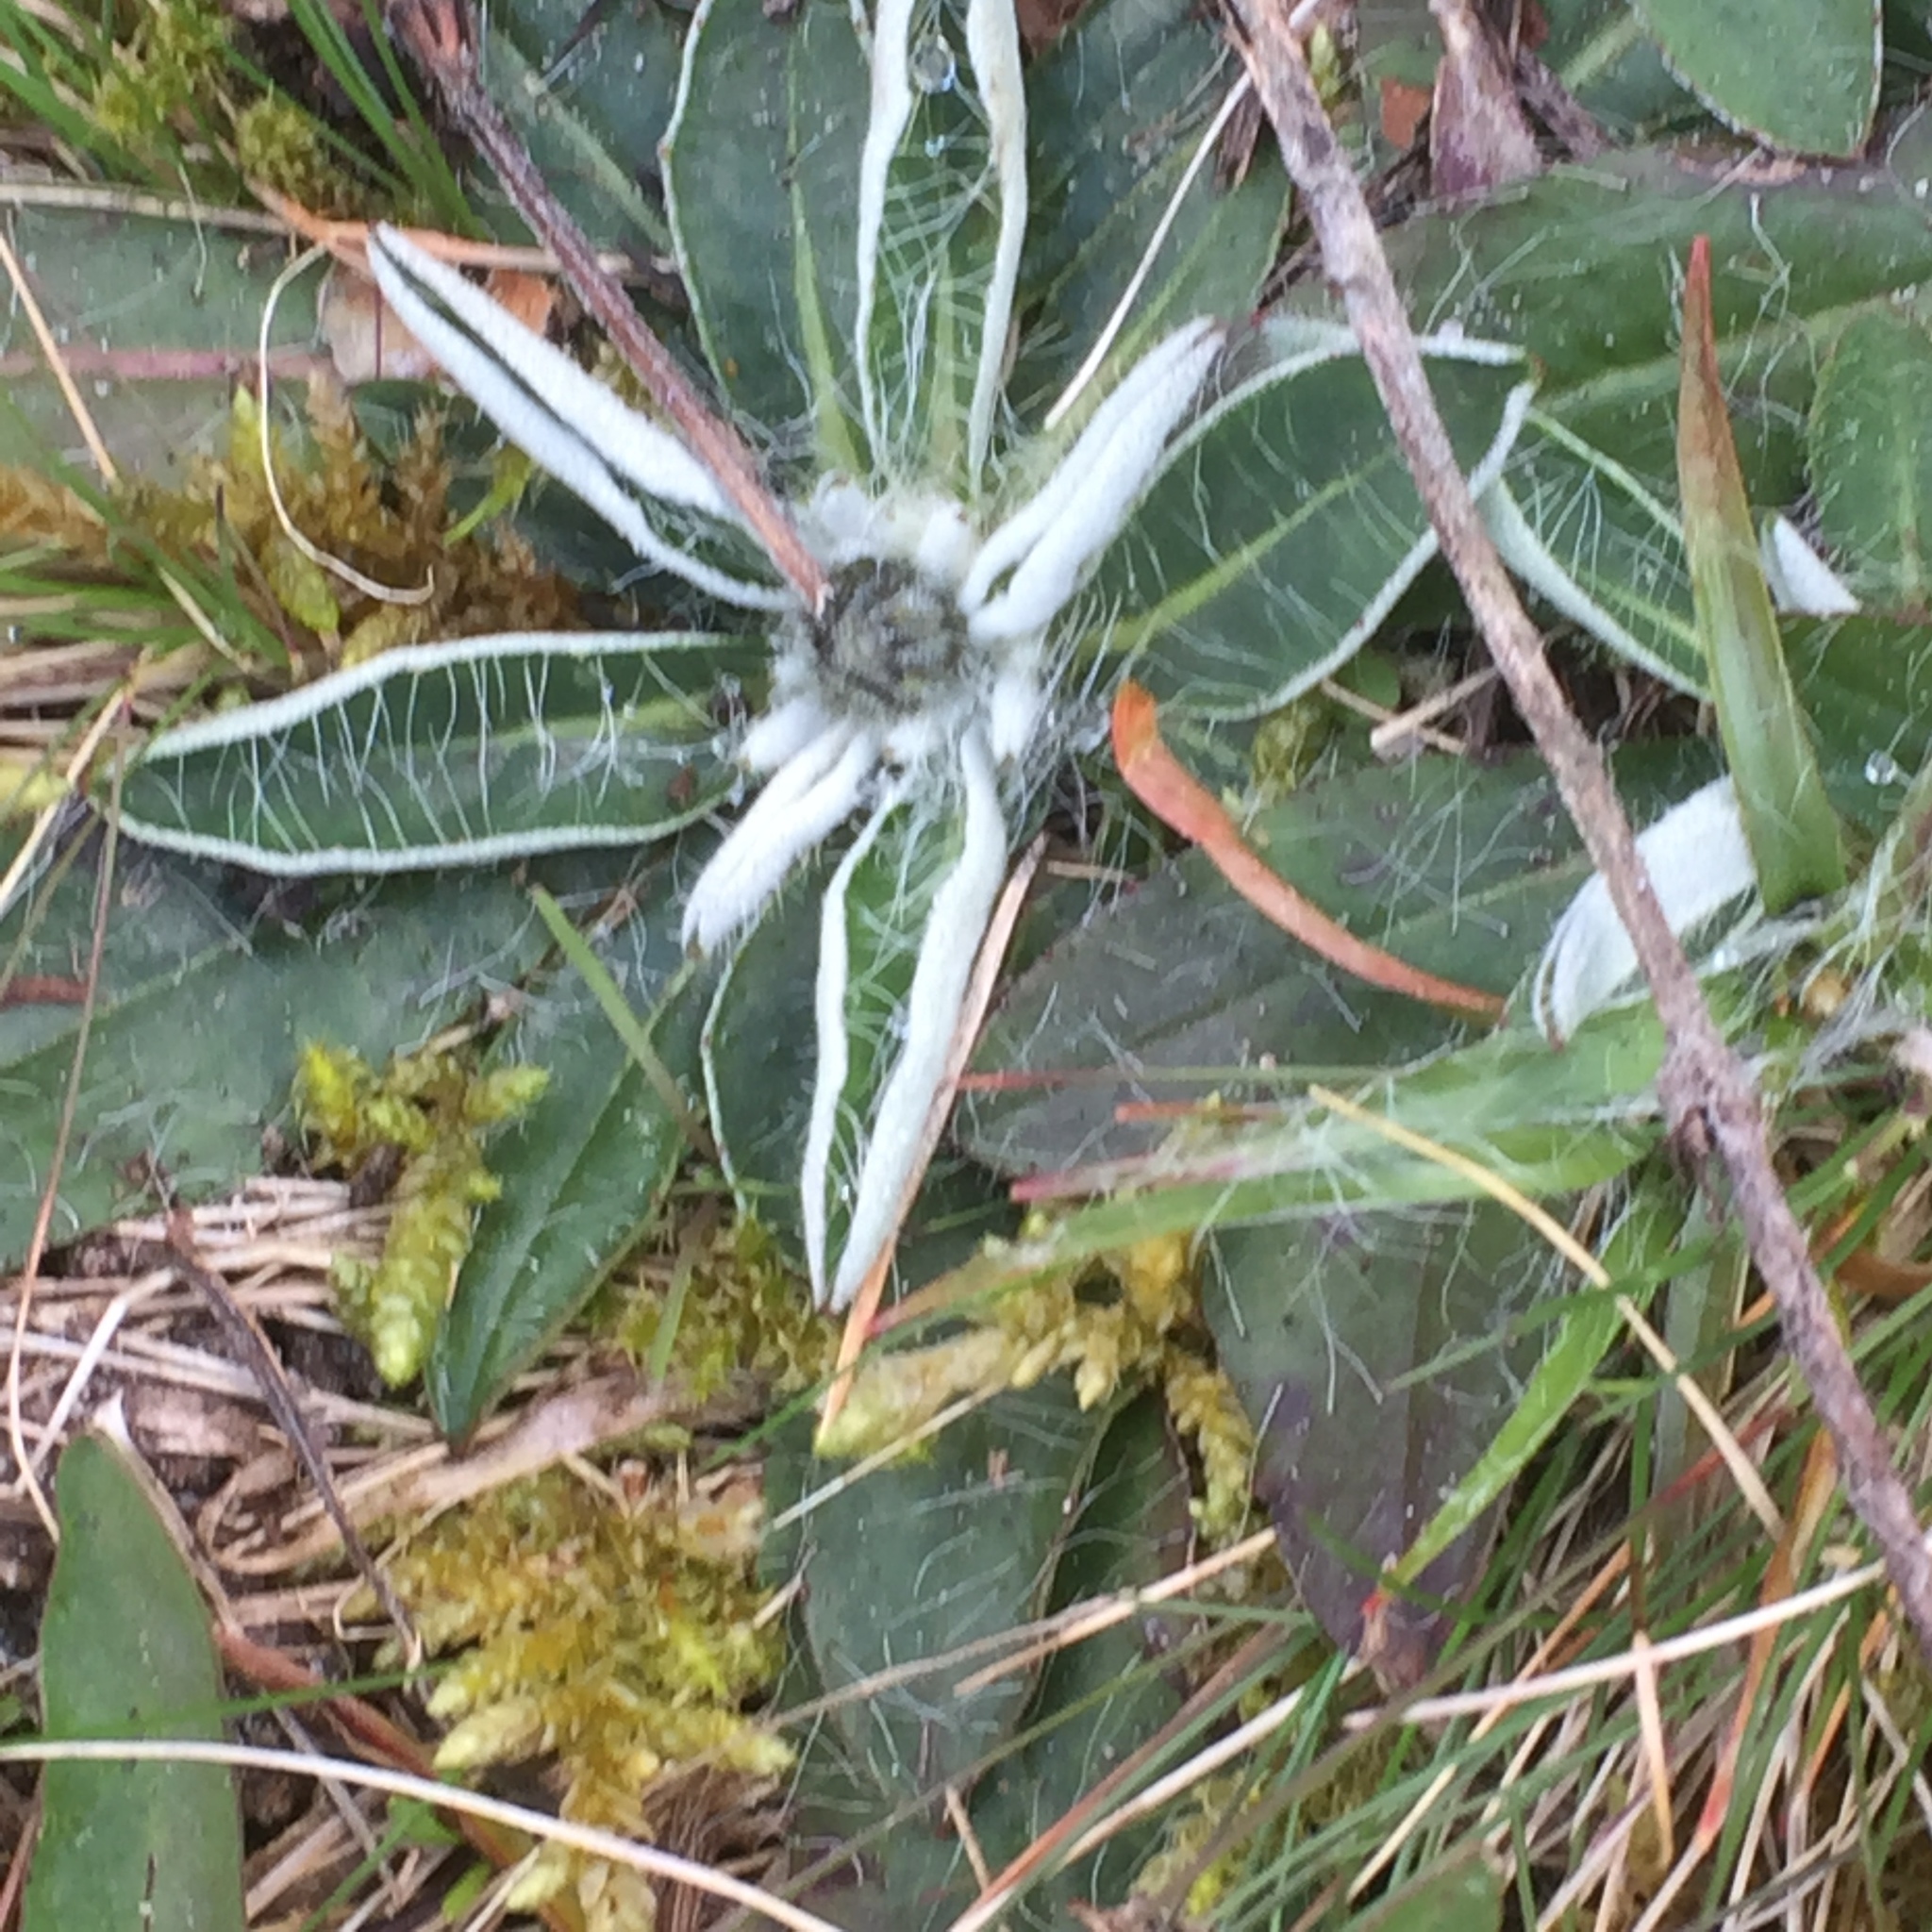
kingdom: Plantae
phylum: Tracheophyta
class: Magnoliopsida
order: Asterales
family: Asteraceae
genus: Pilosella
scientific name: Pilosella officinarum
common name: Mouse-ear hawkweed
